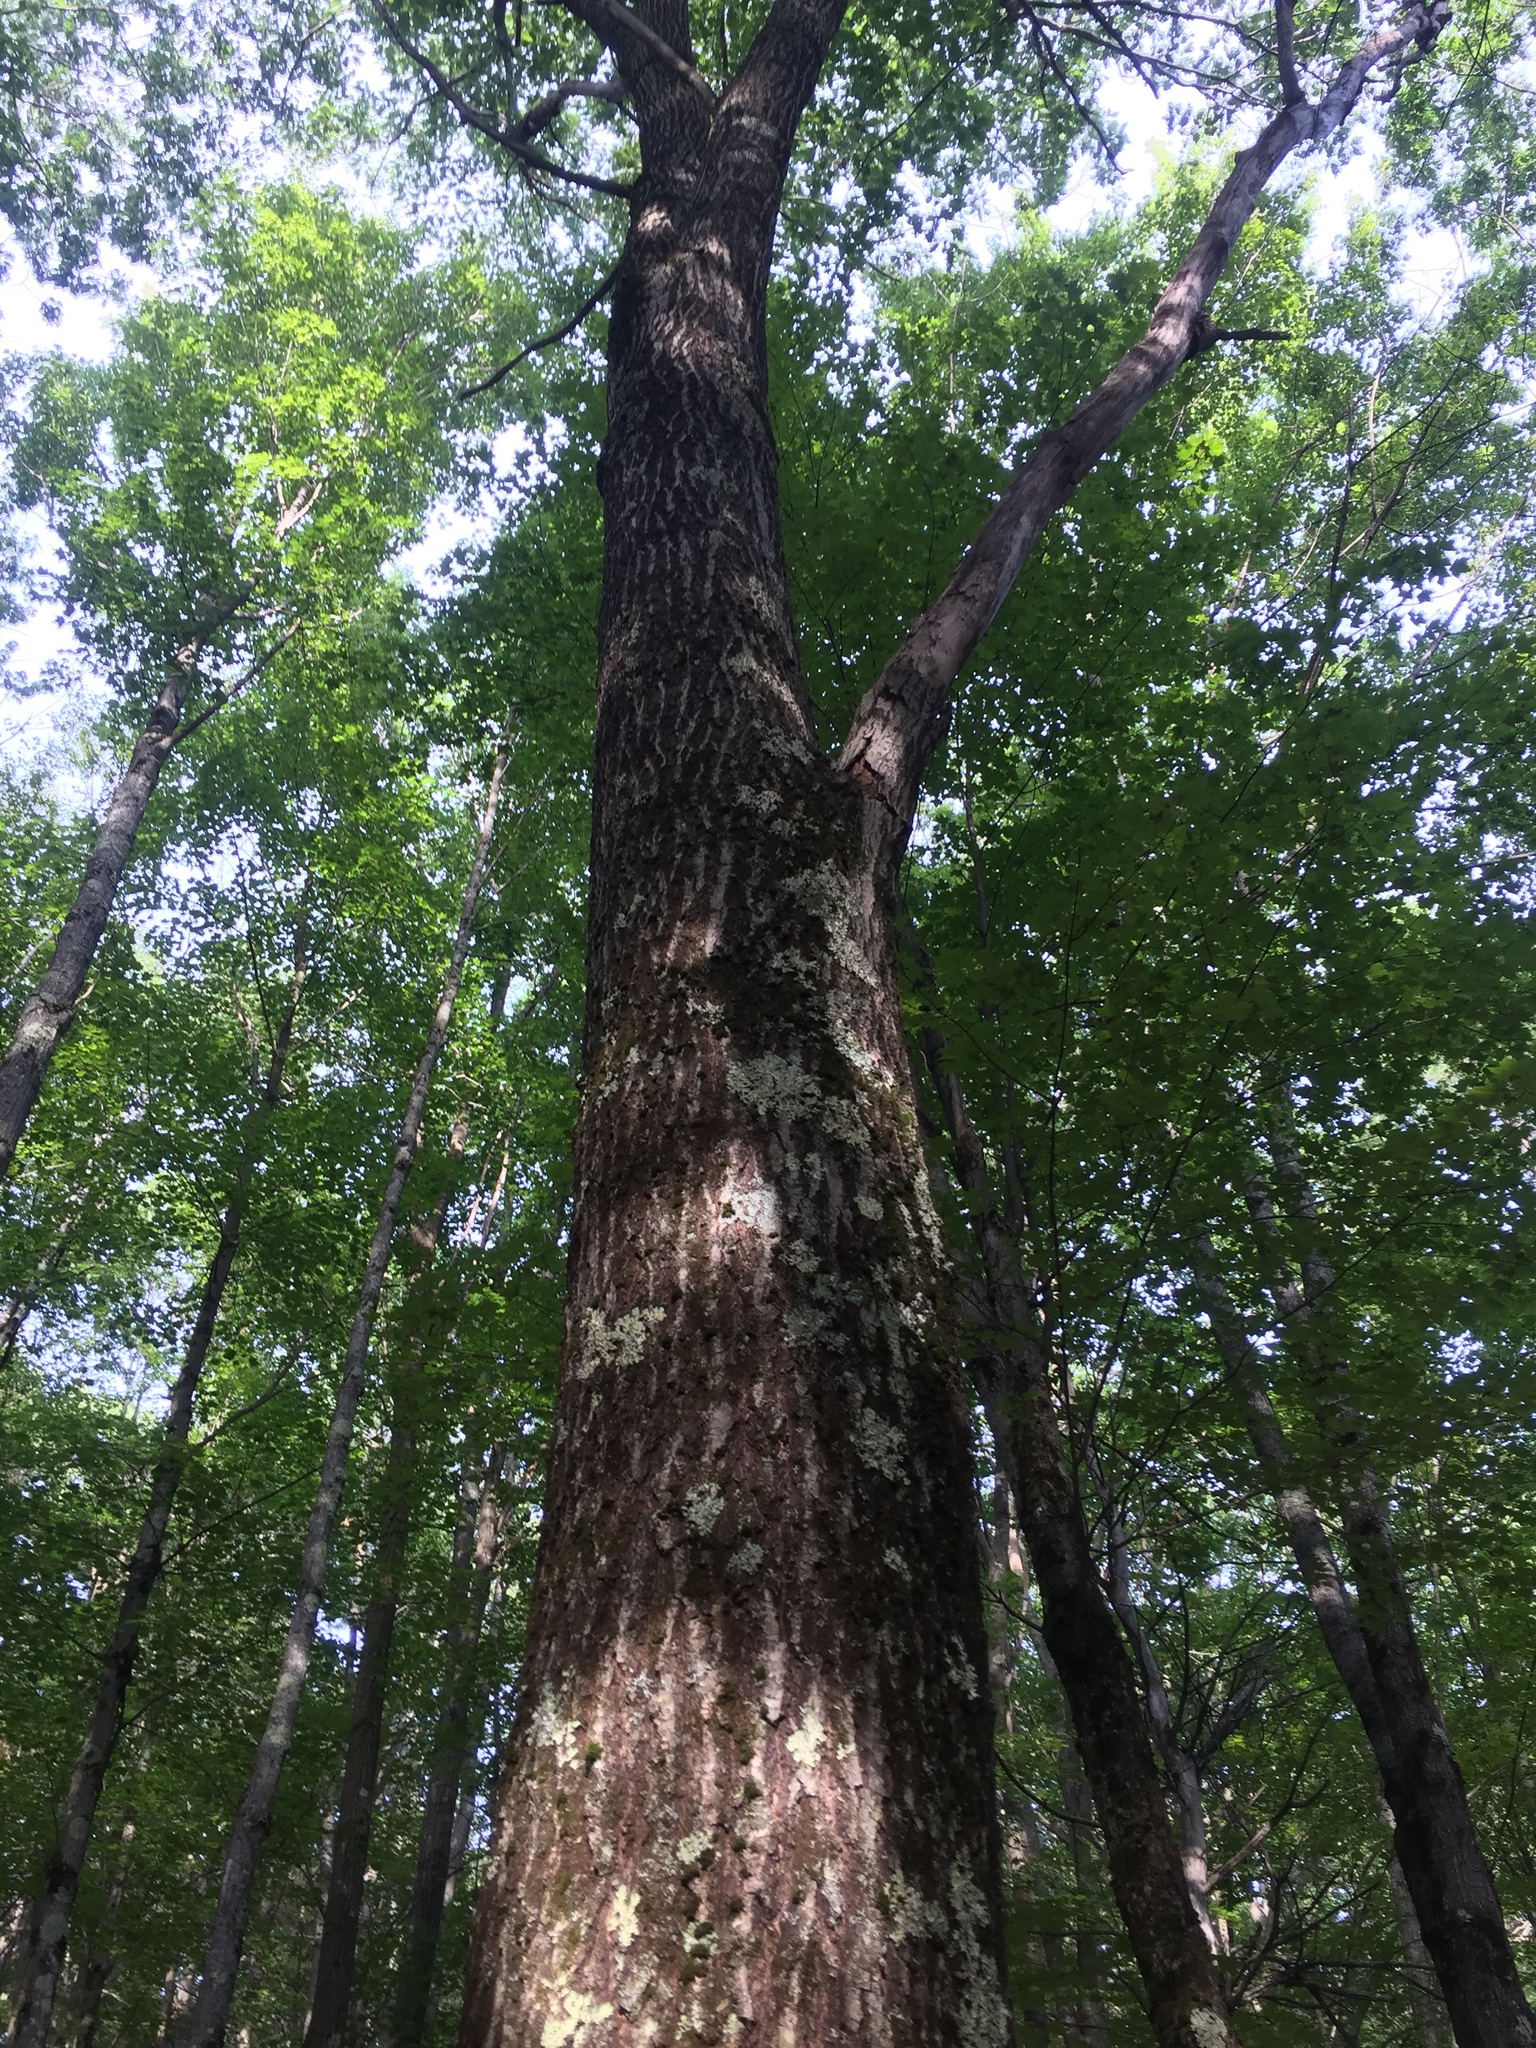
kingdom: Plantae
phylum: Tracheophyta
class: Magnoliopsida
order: Fagales
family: Fagaceae
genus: Quercus
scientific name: Quercus rubra
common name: Red oak
